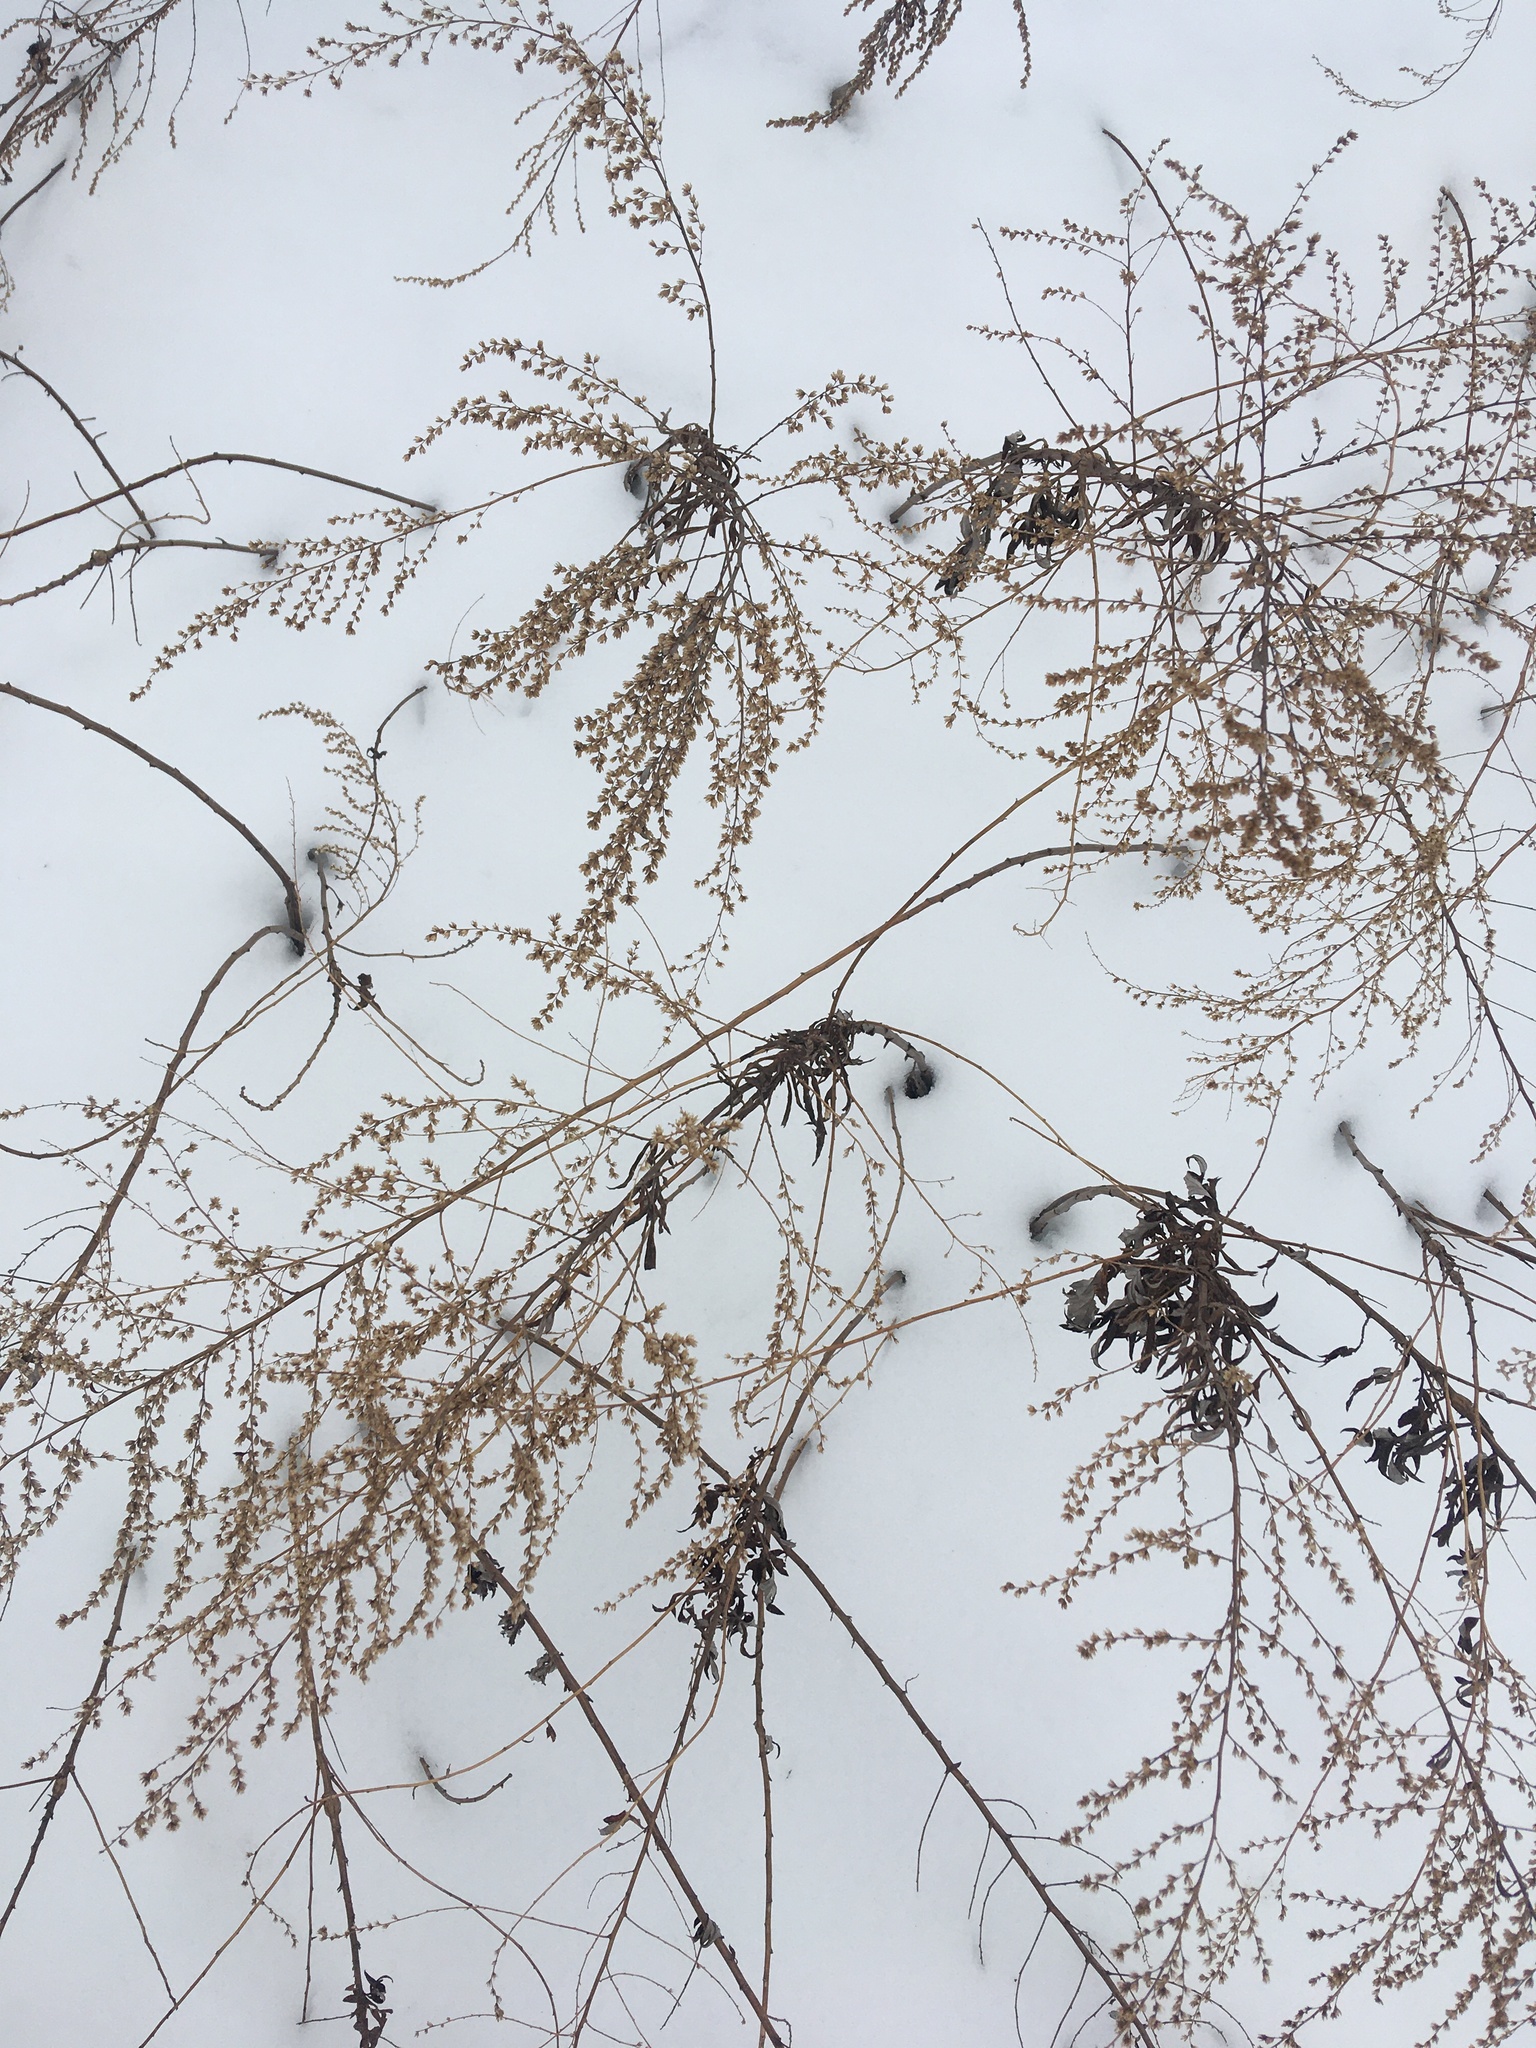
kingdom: Plantae
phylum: Tracheophyta
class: Magnoliopsida
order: Asterales
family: Asteraceae
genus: Artemisia
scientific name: Artemisia vulgaris
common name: Mugwort
